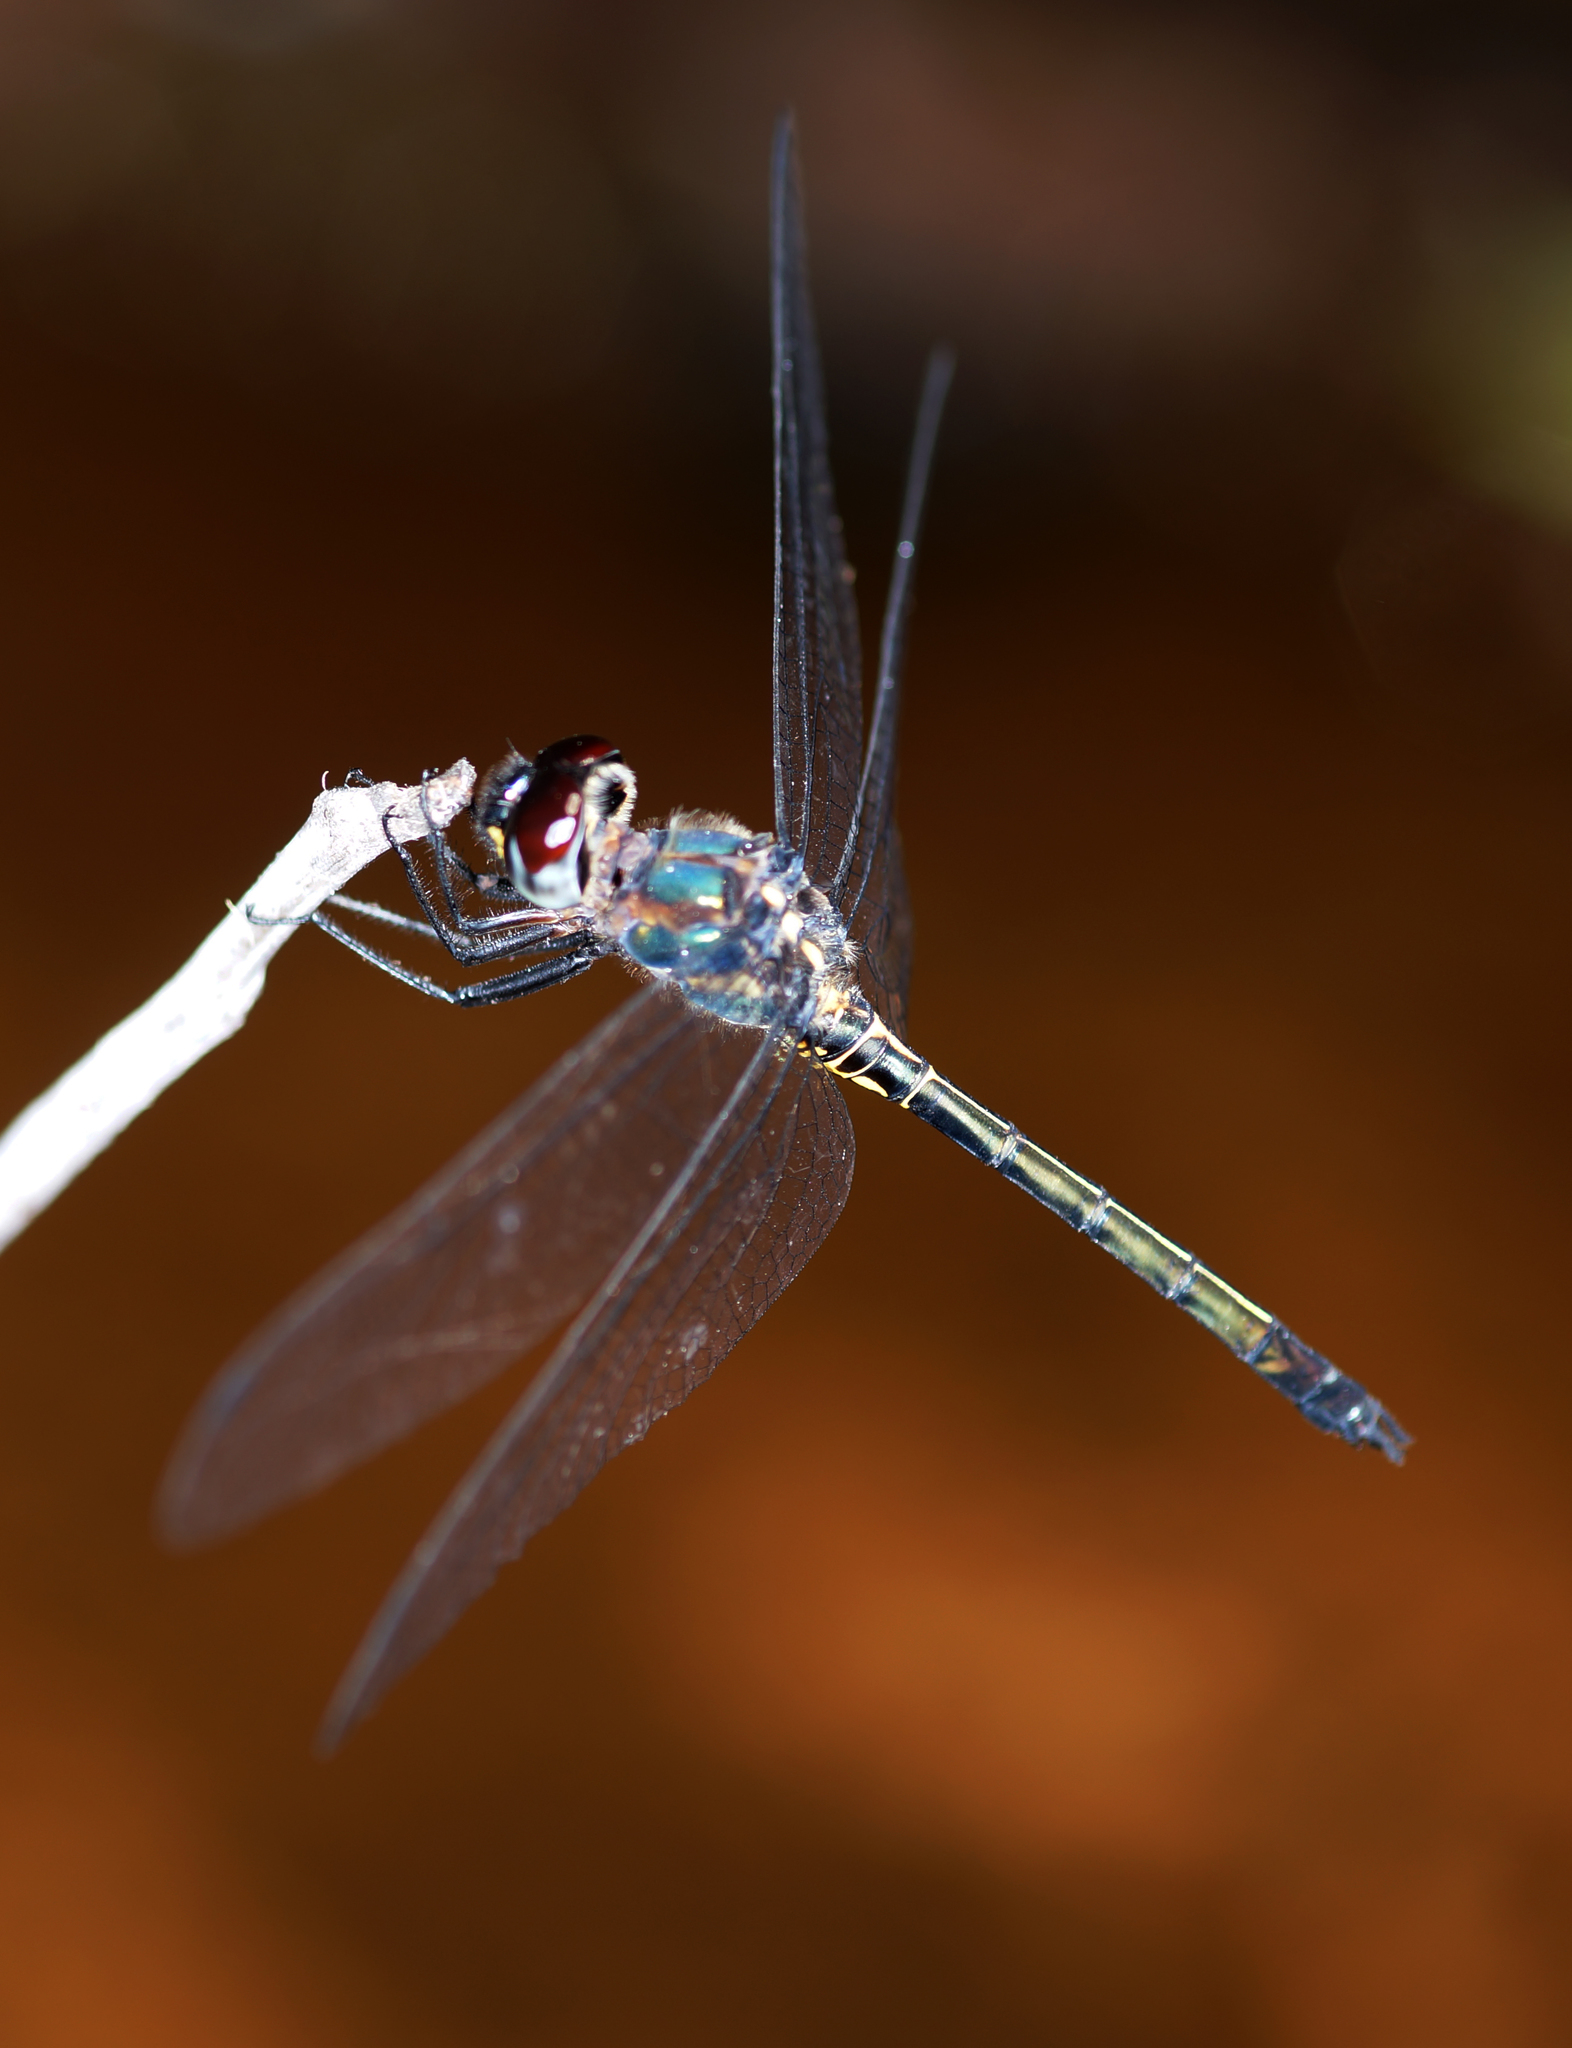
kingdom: Animalia
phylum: Arthropoda
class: Insecta
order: Odonata
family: Libellulidae
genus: Zygonyx
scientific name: Zygonyx iris
